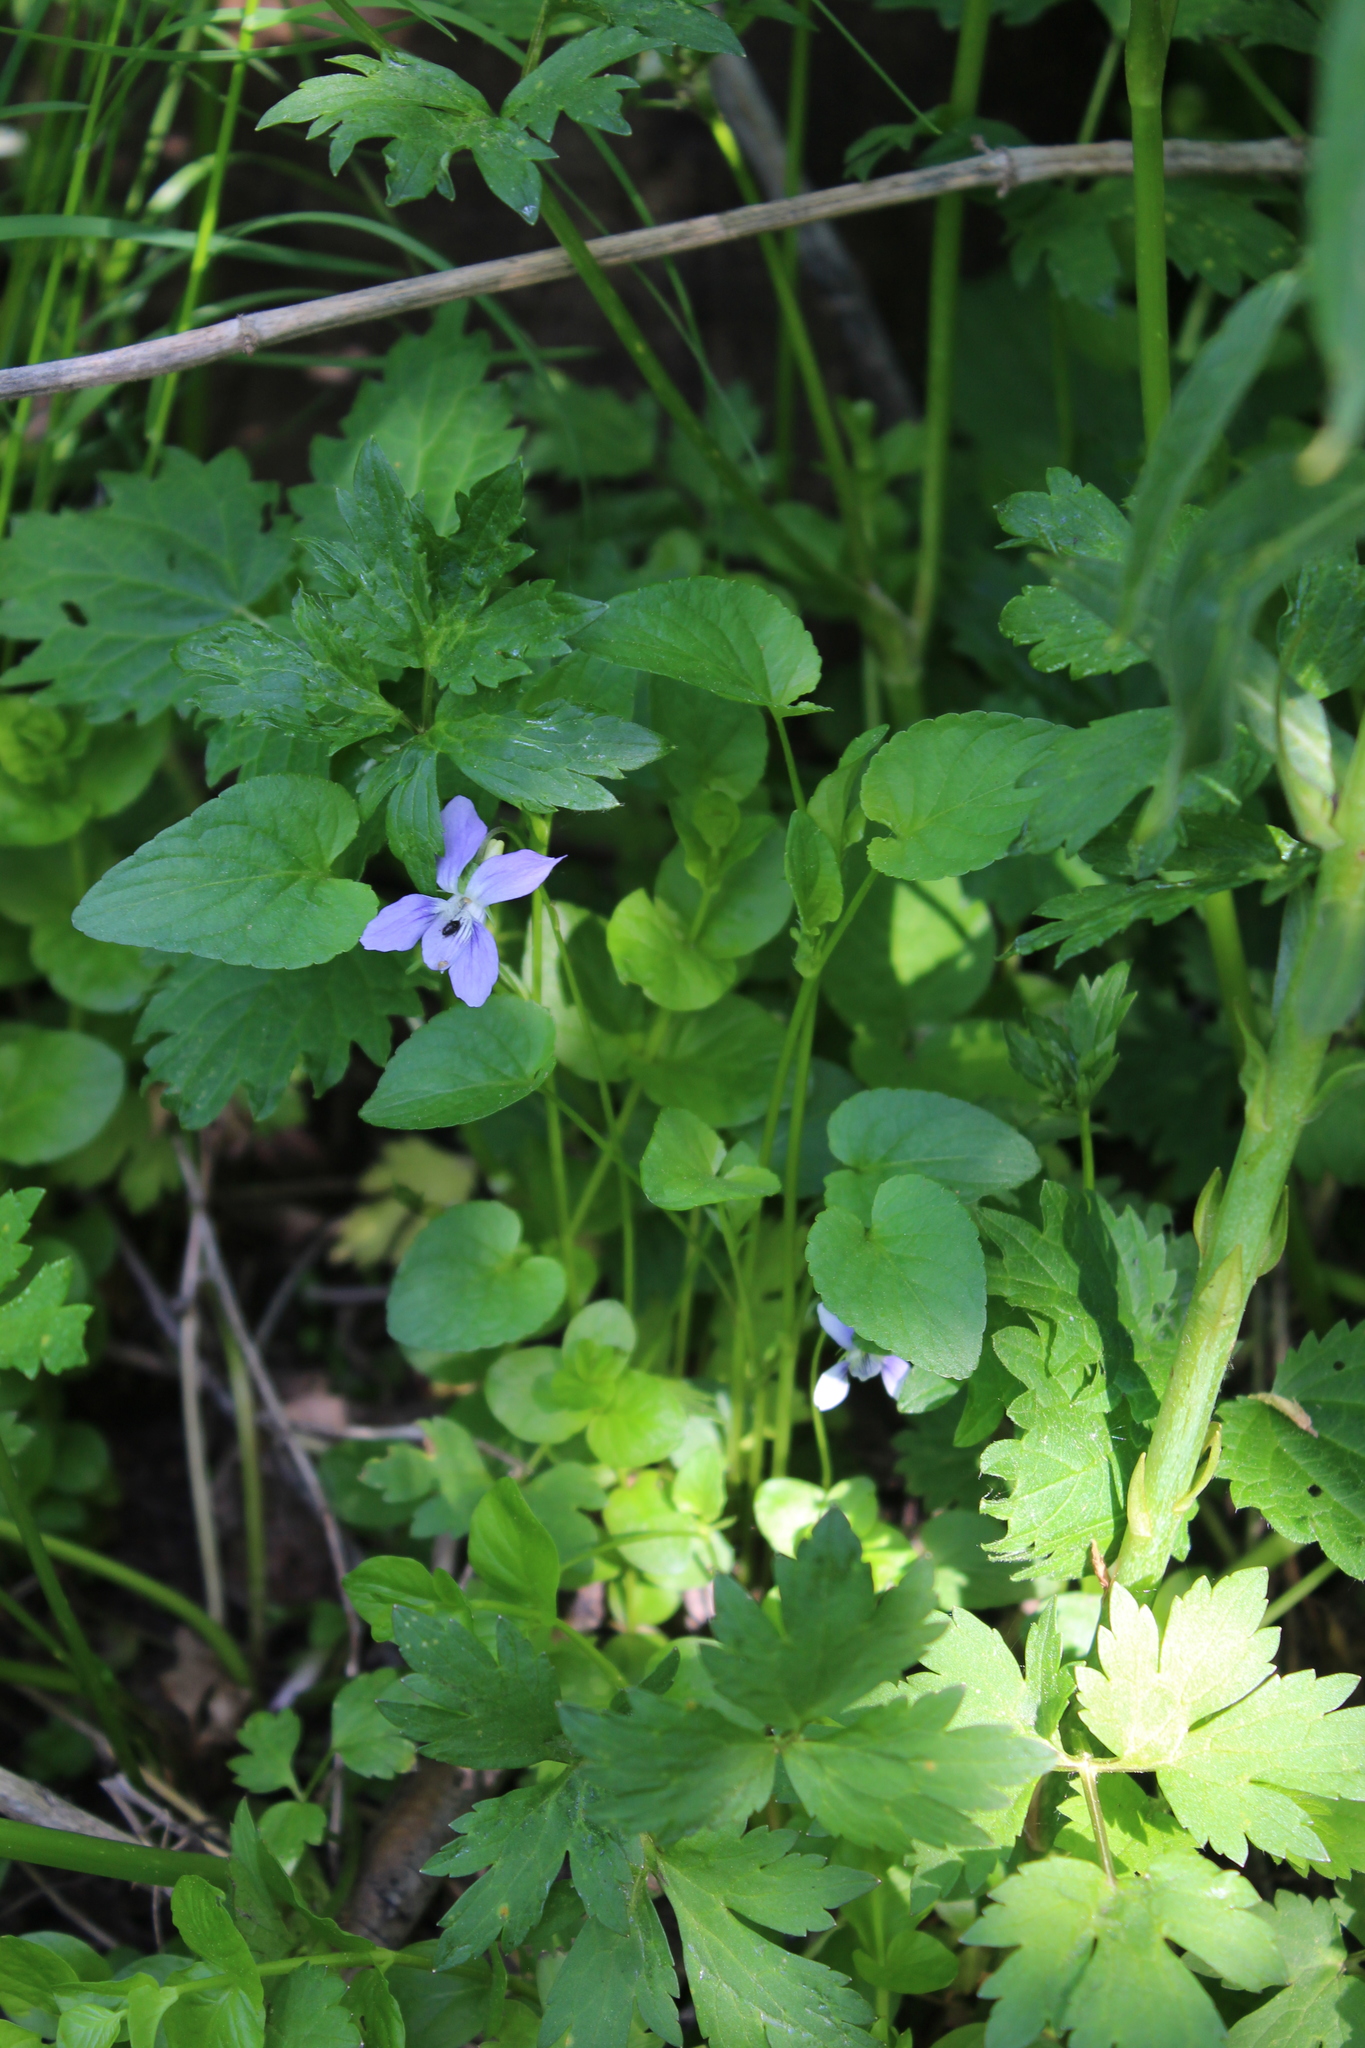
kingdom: Plantae
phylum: Tracheophyta
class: Magnoliopsida
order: Malpighiales
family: Violaceae
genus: Viola
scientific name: Viola canina
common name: Heath dog-violet
